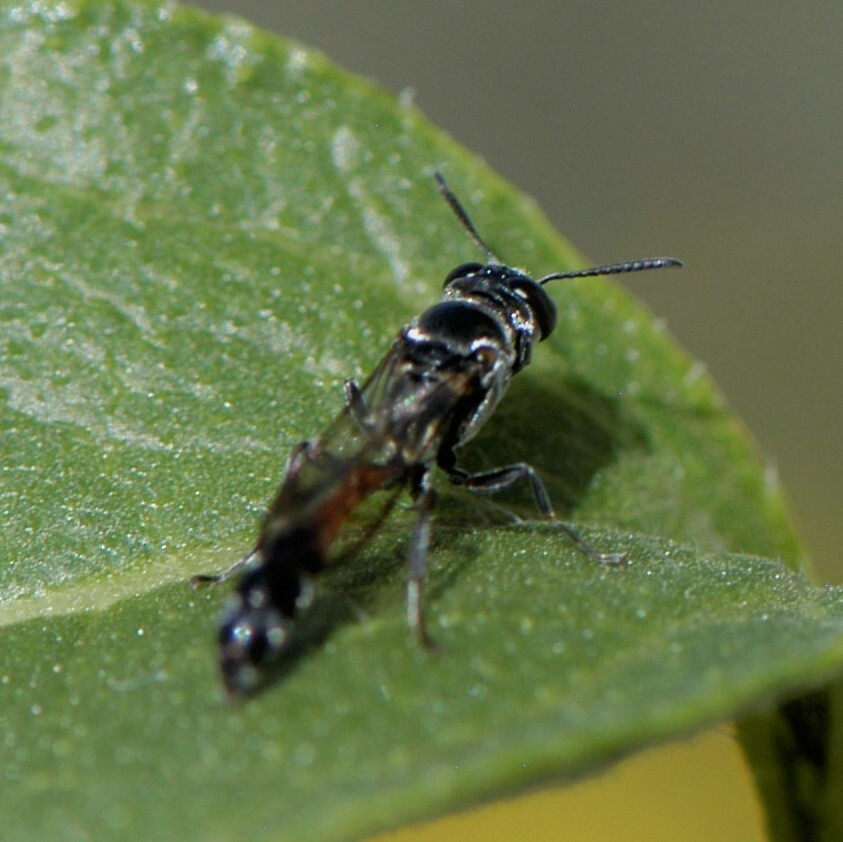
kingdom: Animalia
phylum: Arthropoda
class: Insecta
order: Hymenoptera
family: Crabronidae
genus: Trypoxylon
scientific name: Trypoxylon californicum
